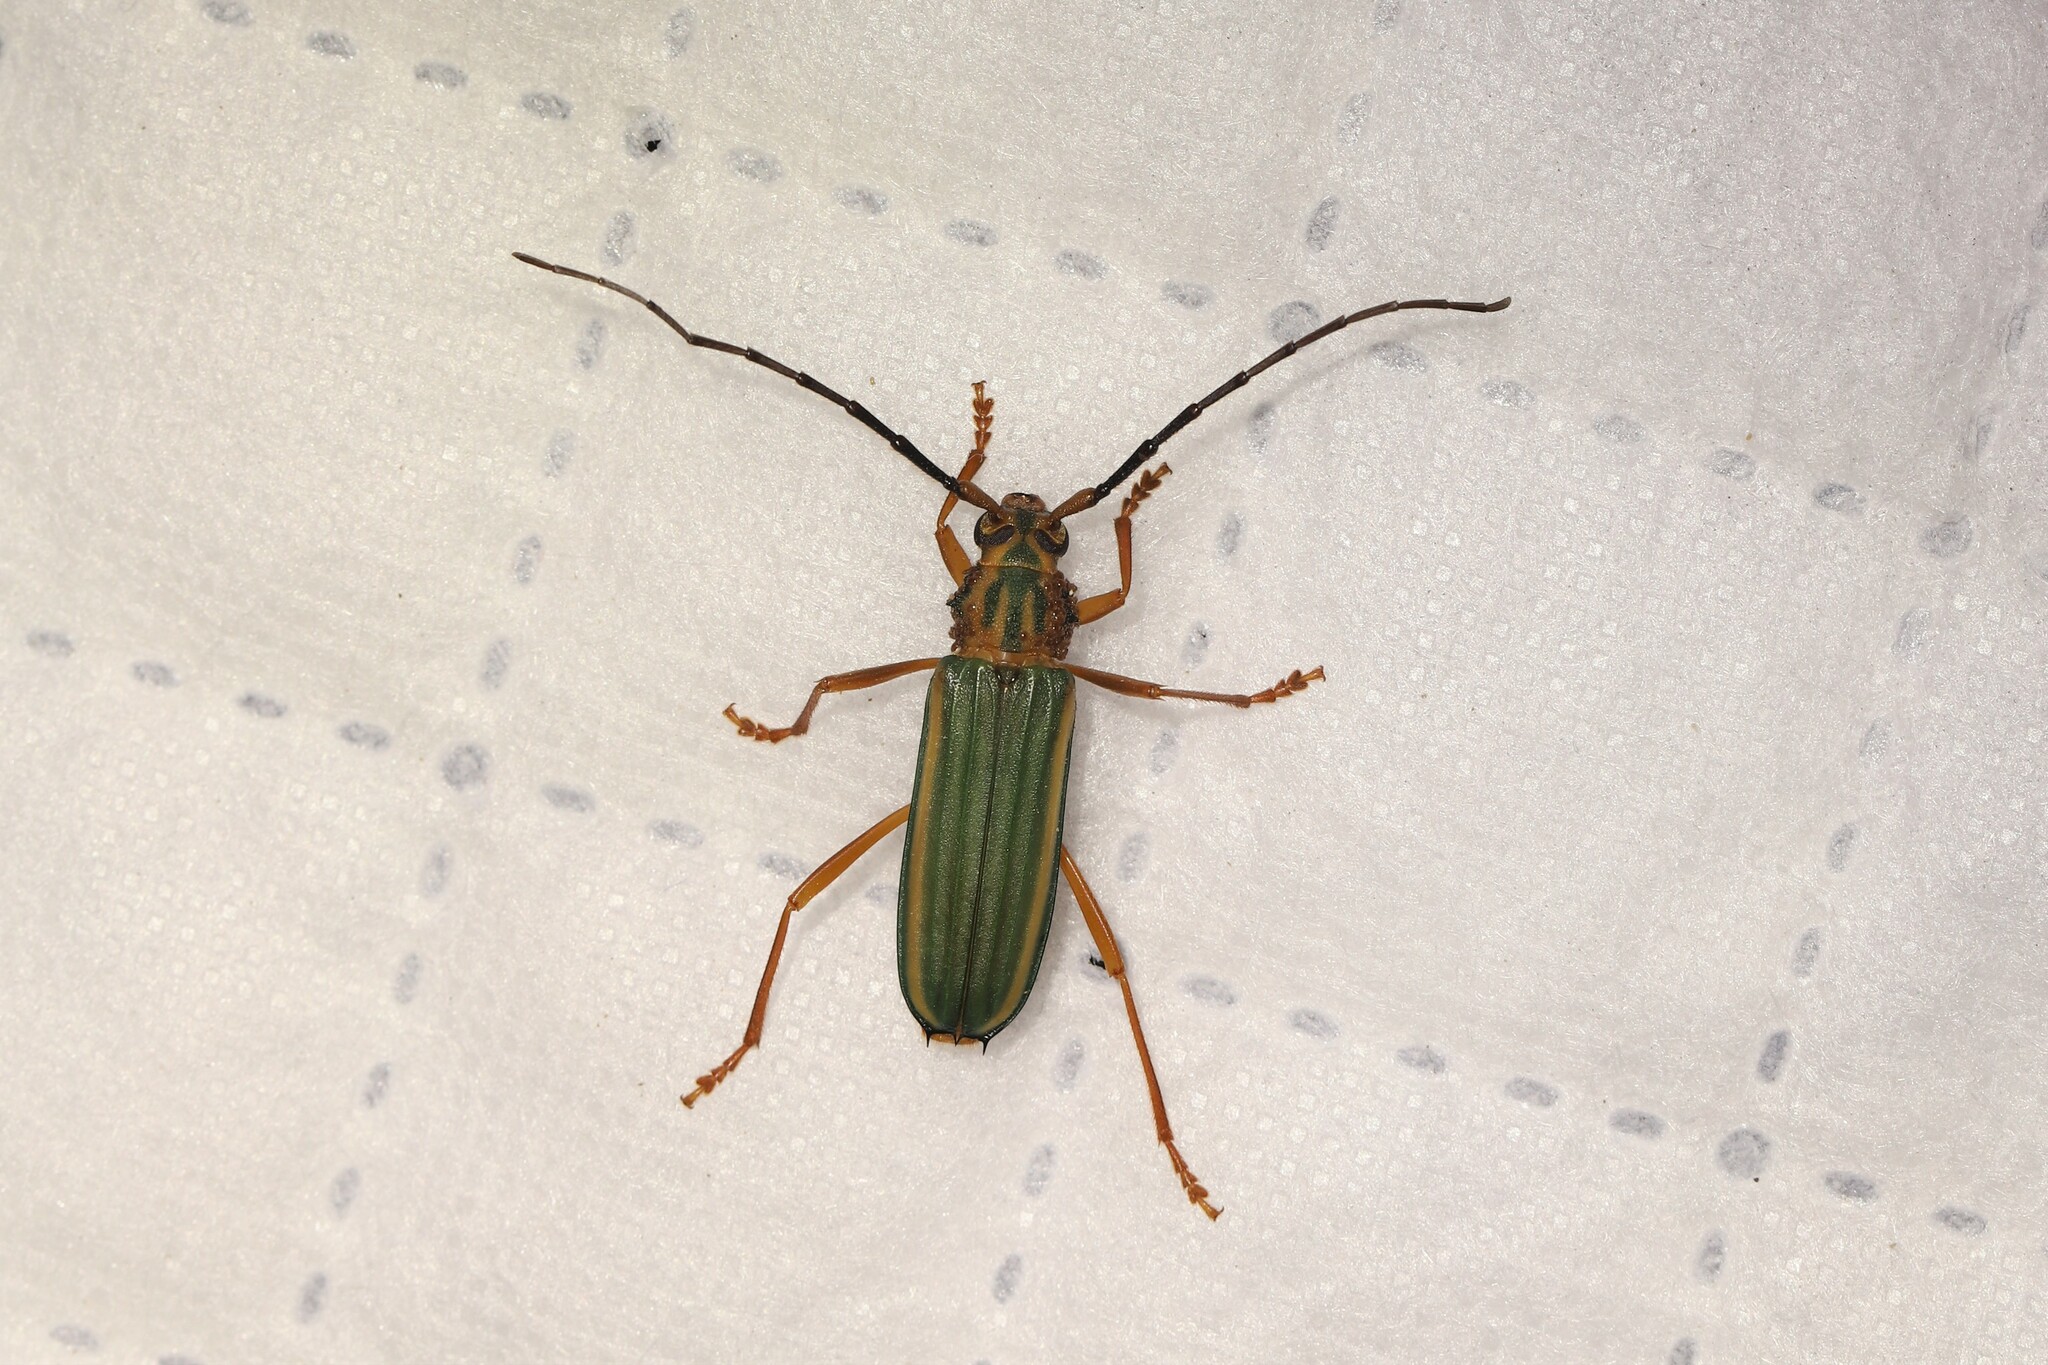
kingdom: Animalia
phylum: Arthropoda
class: Insecta
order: Coleoptera
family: Cerambycidae
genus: Chlorida
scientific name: Chlorida festiva
